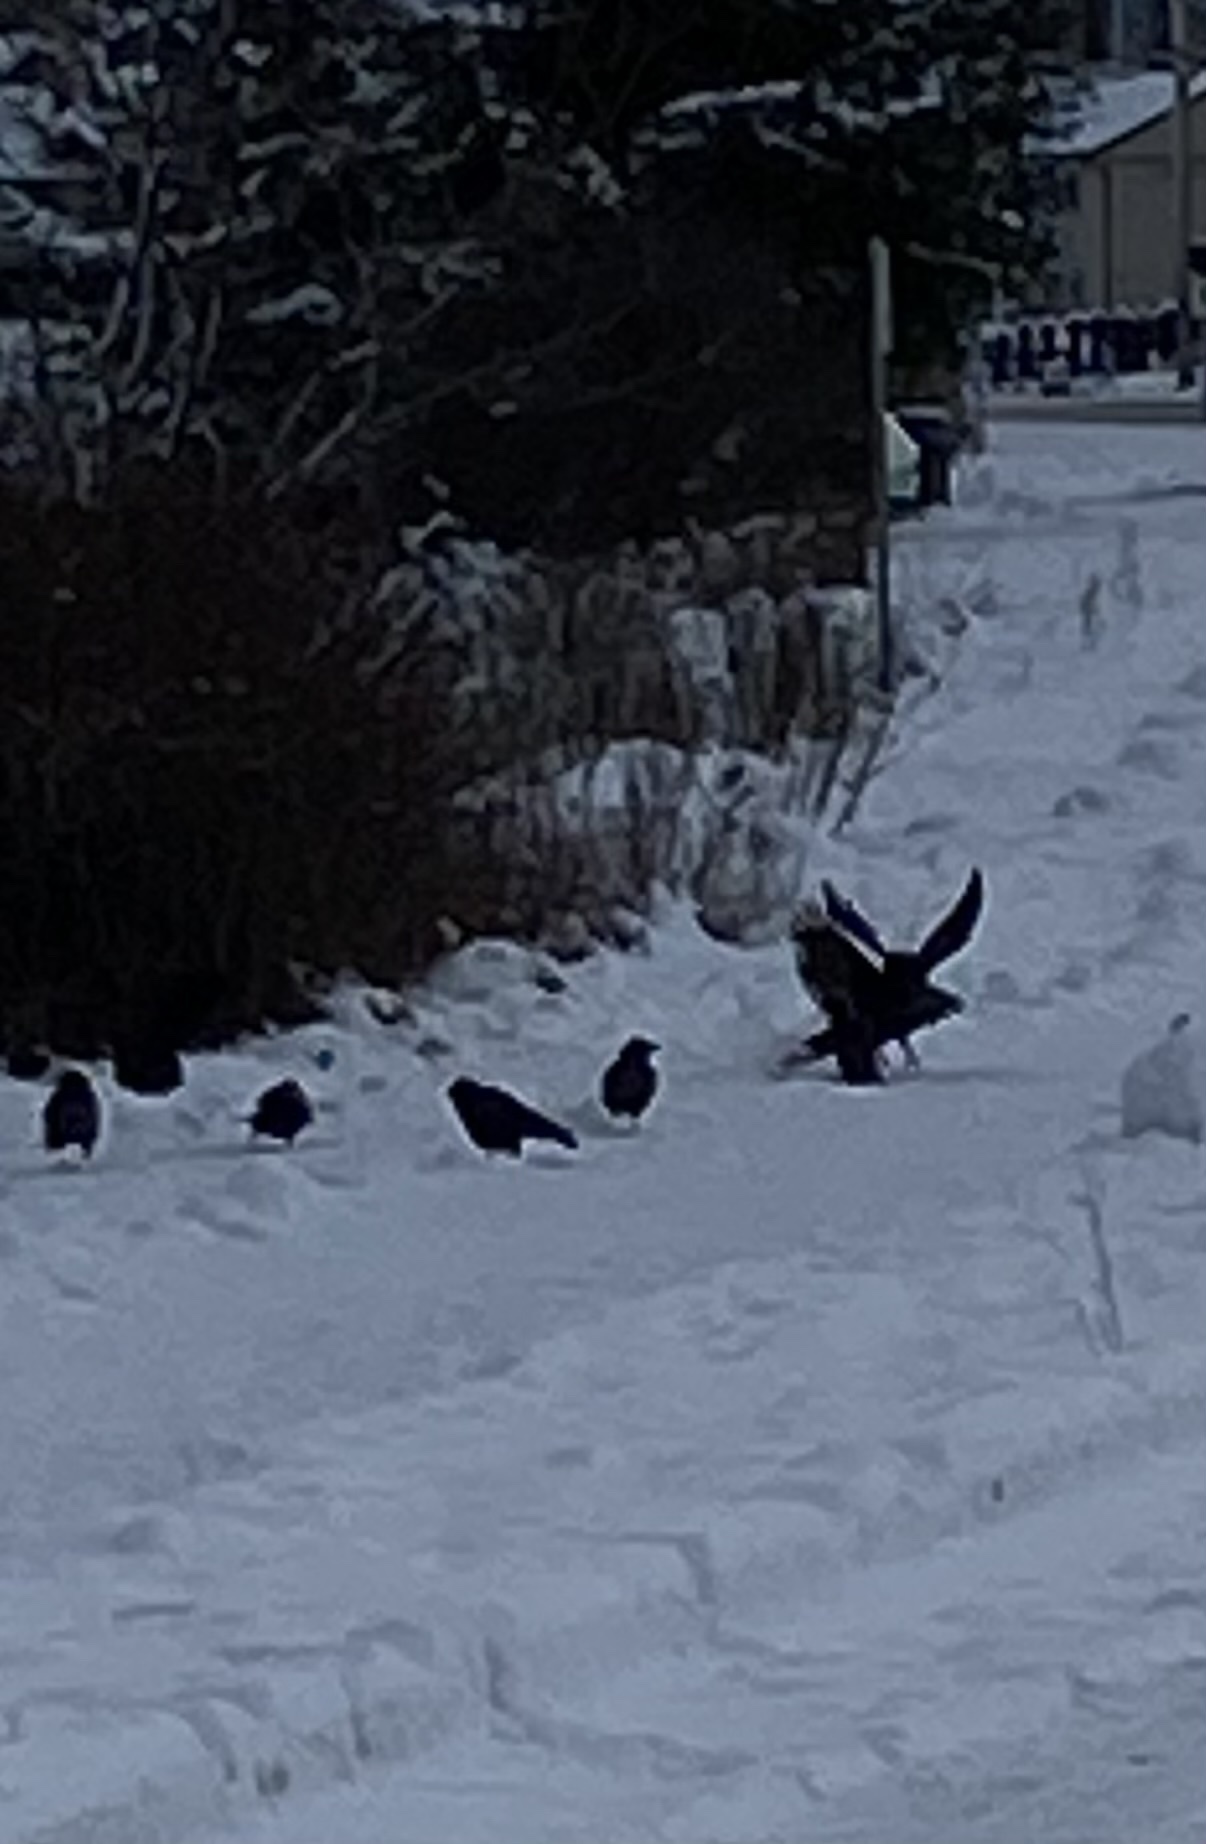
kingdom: Animalia
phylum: Chordata
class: Aves
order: Passeriformes
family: Corvidae
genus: Corvus
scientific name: Corvus brachyrhynchos
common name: American crow
